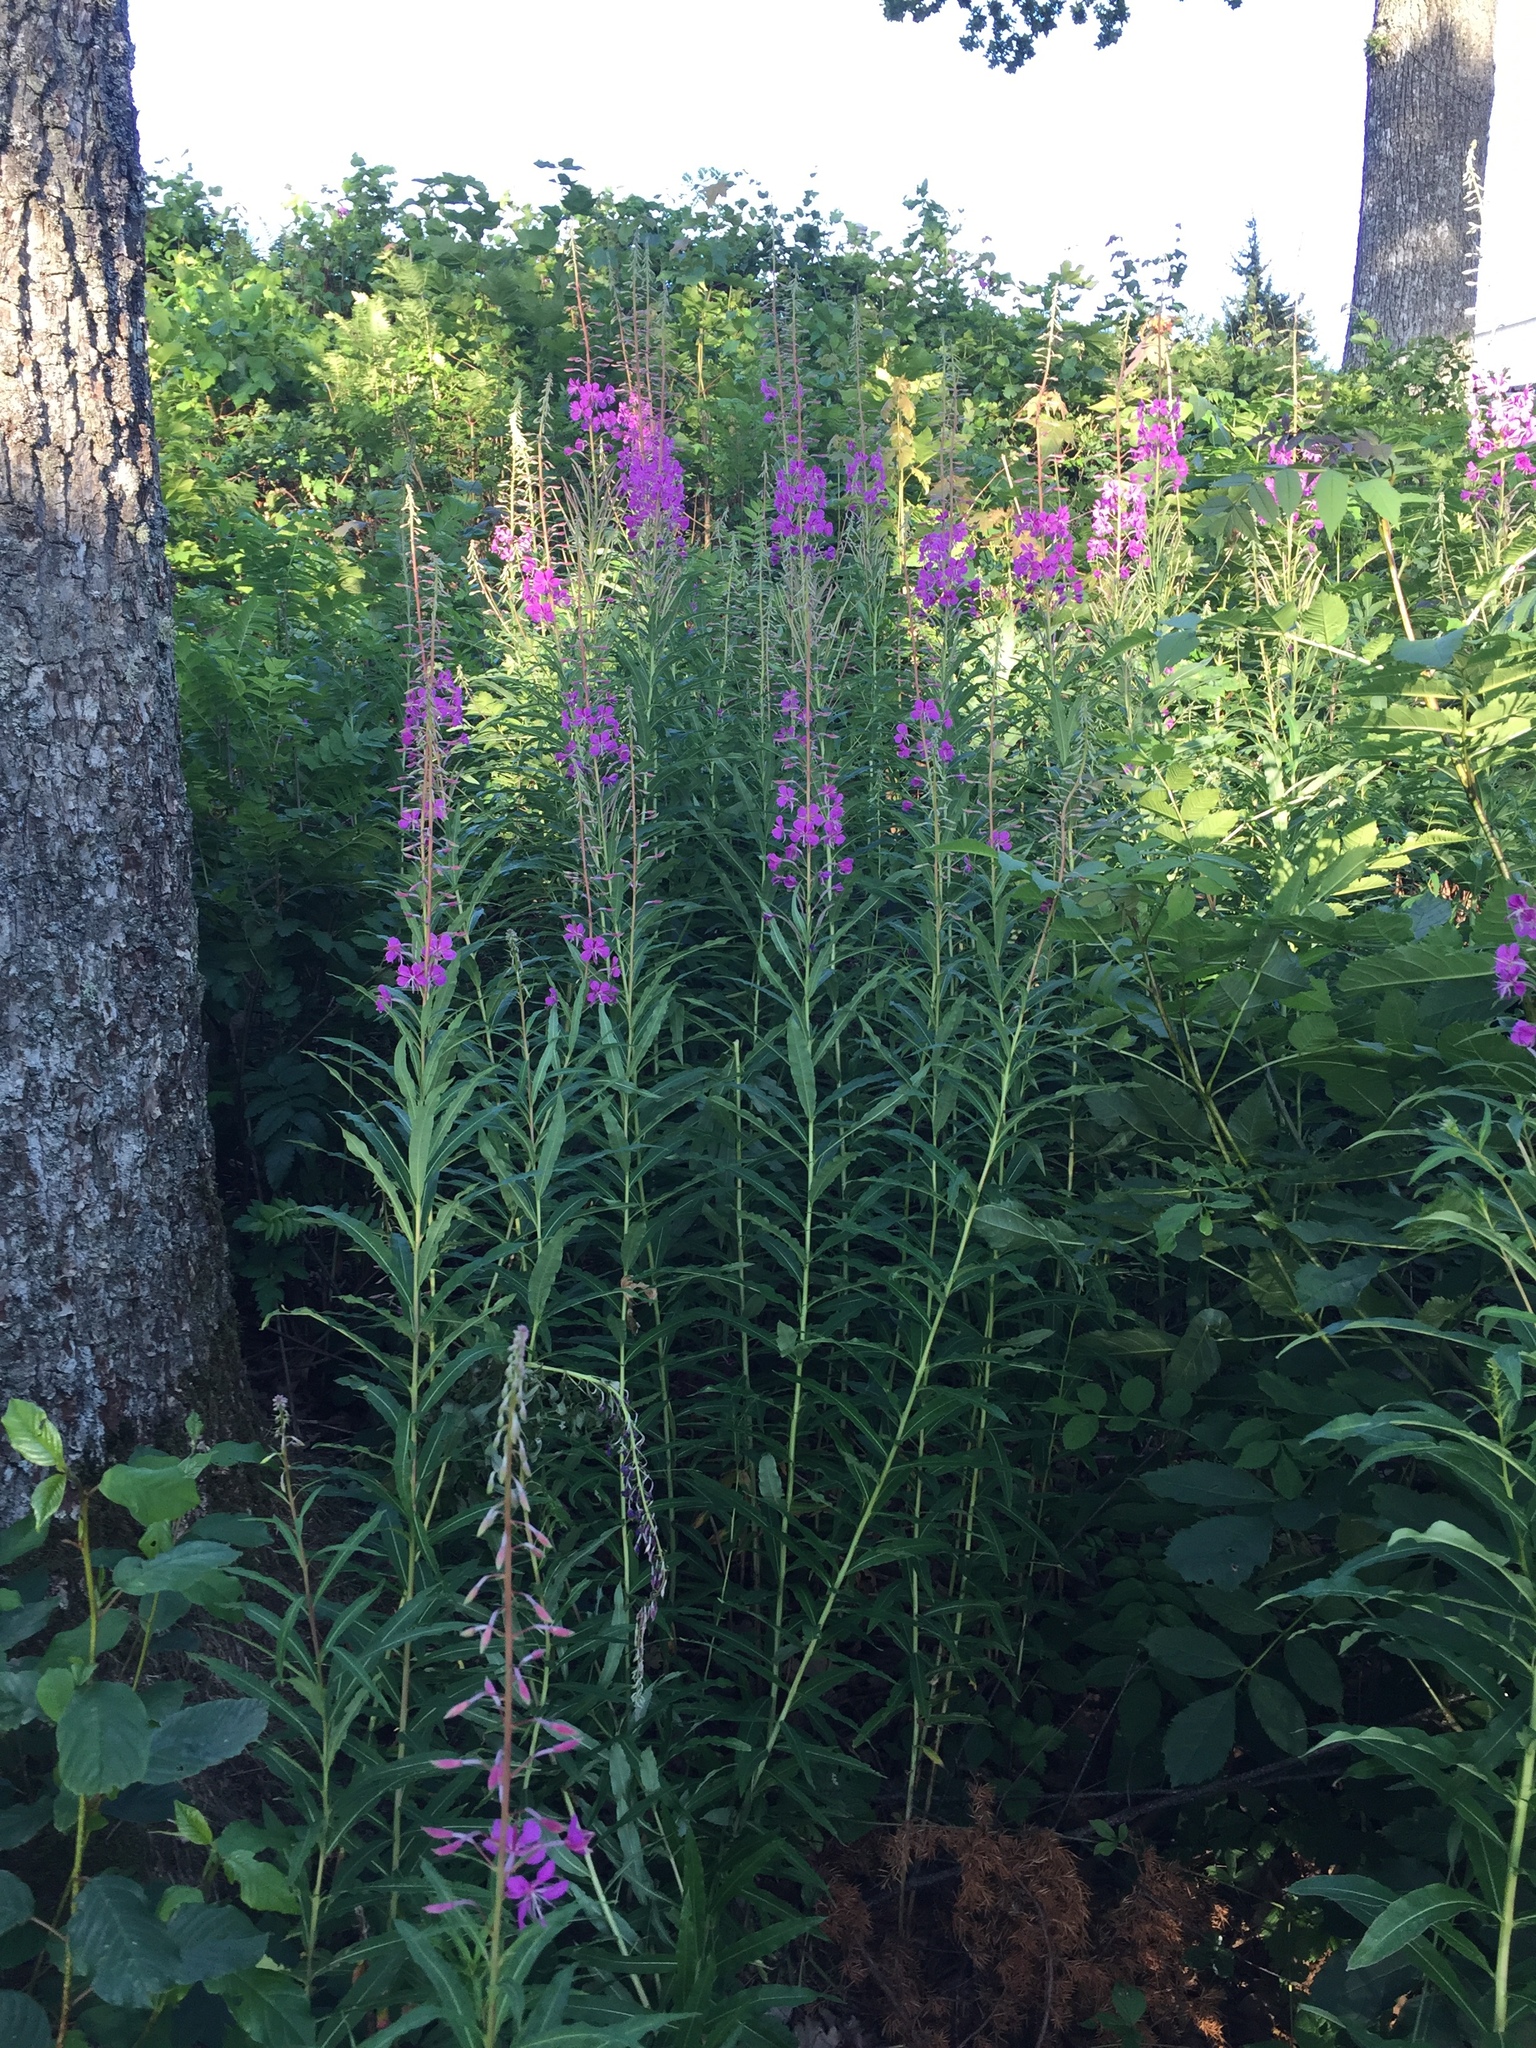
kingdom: Plantae
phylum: Tracheophyta
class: Magnoliopsida
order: Myrtales
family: Onagraceae
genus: Chamaenerion
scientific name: Chamaenerion angustifolium
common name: Fireweed
